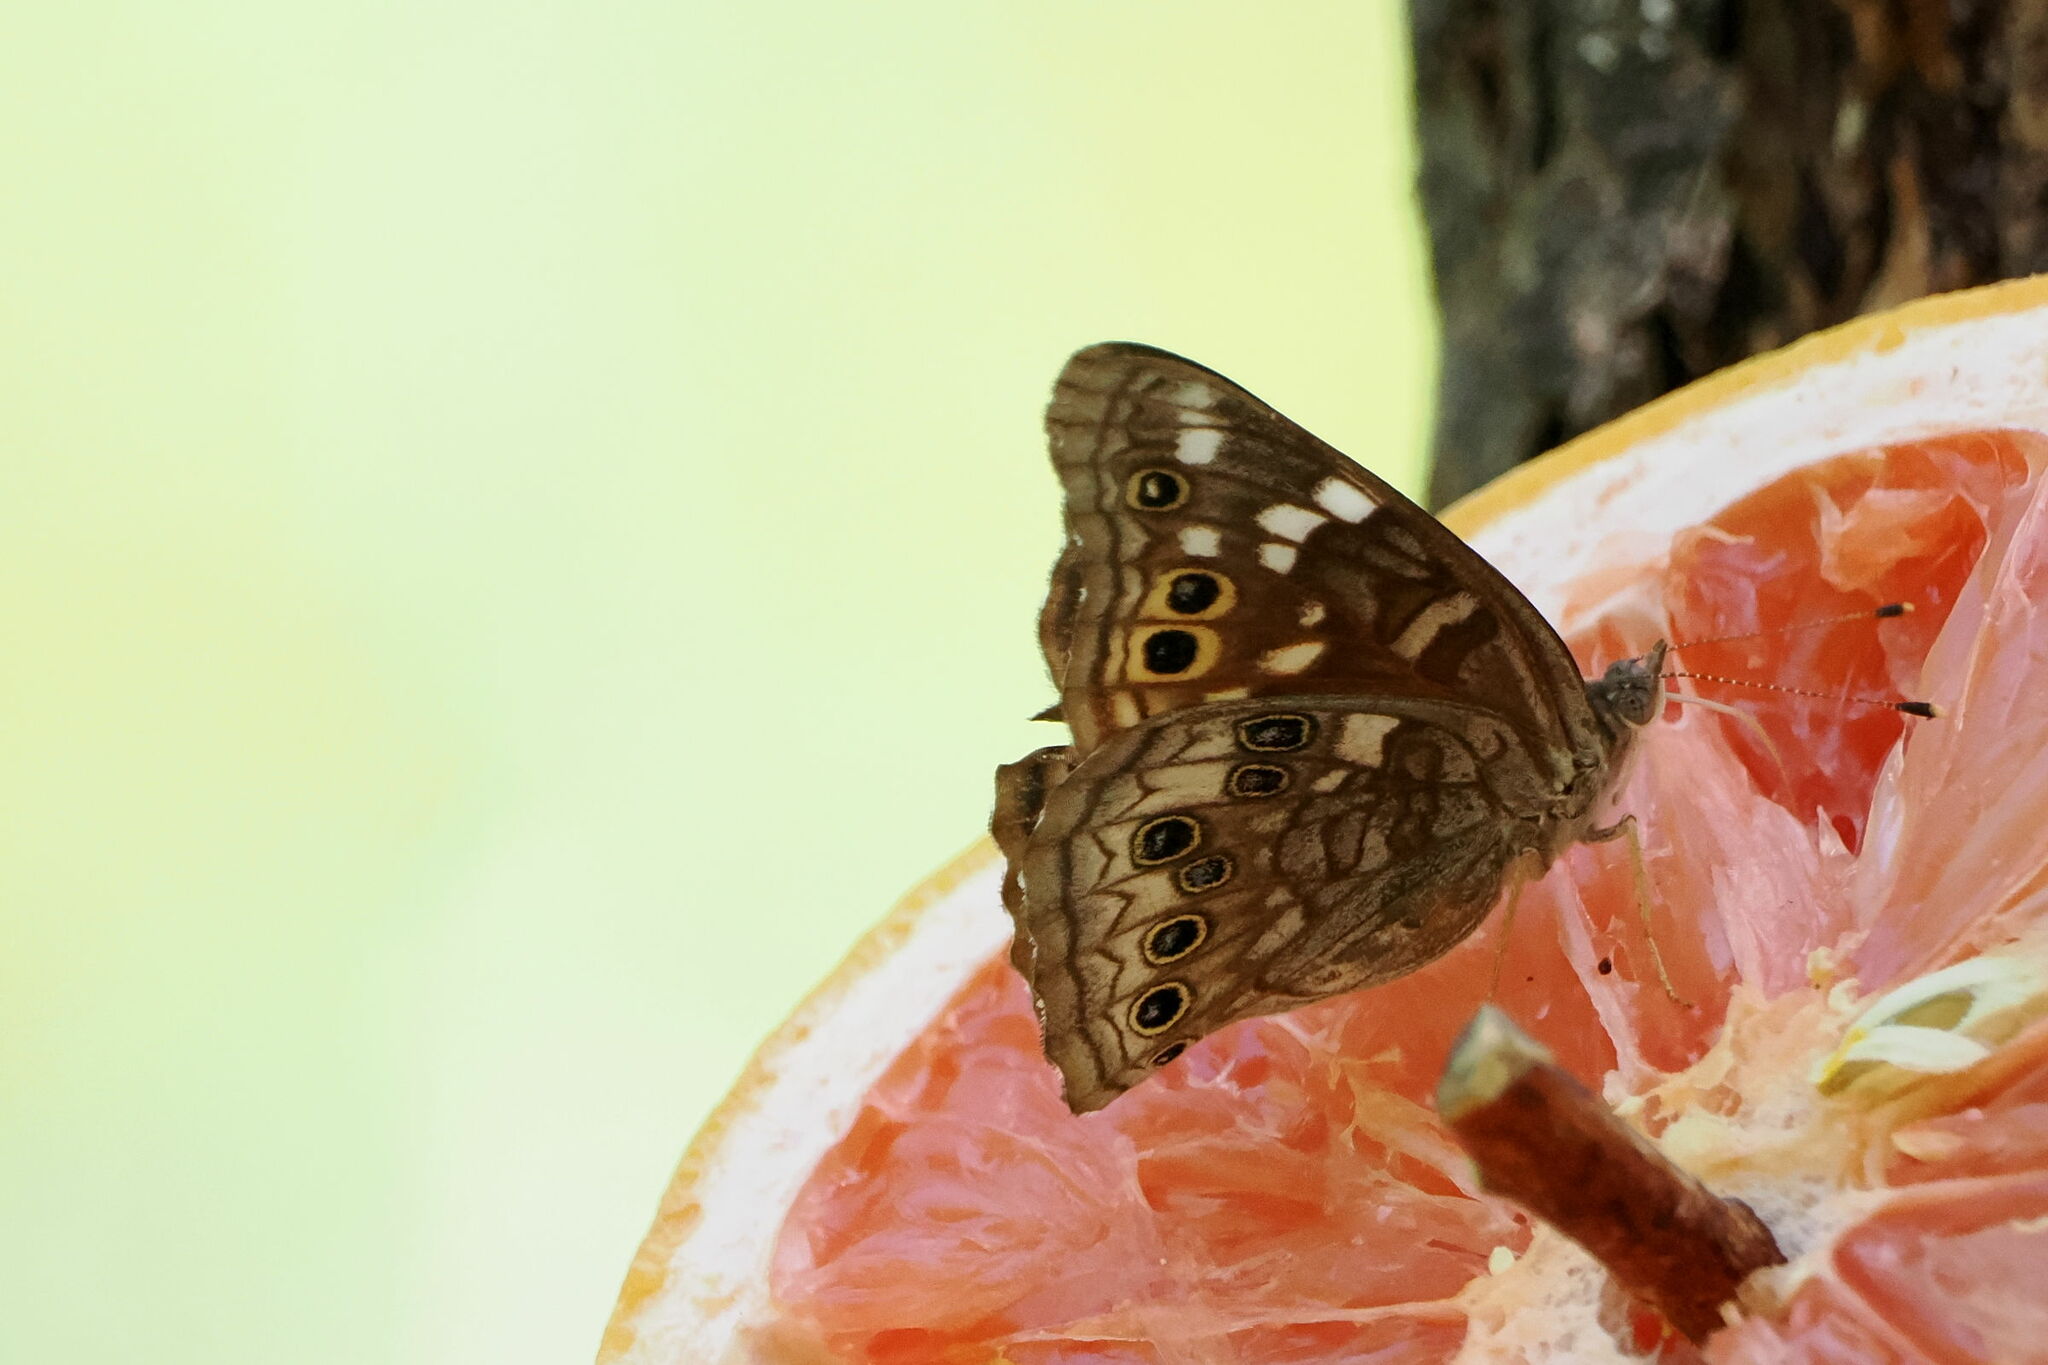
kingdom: Animalia
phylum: Arthropoda
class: Insecta
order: Lepidoptera
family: Nymphalidae
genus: Asterocampa
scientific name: Asterocampa leilia
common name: Empress leilia
